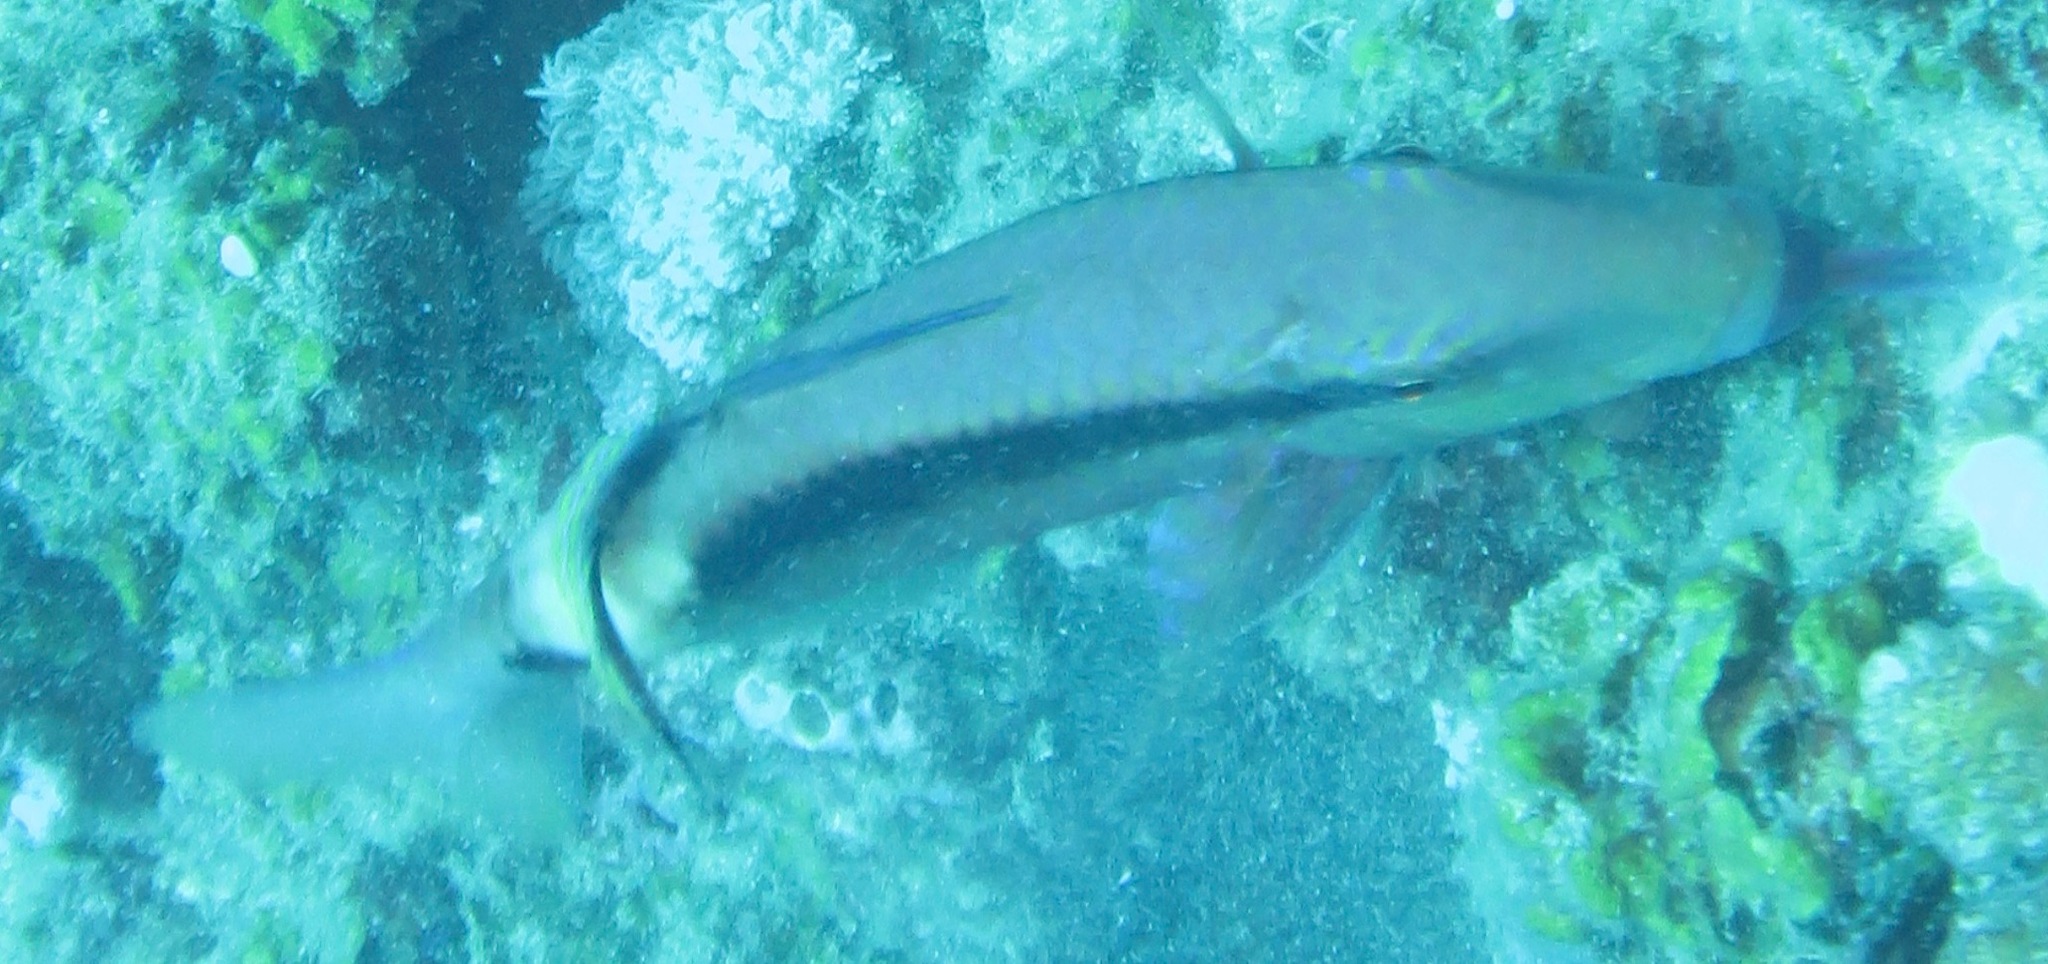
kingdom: Animalia
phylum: Chordata
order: Perciformes
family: Mullidae
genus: Parupeneus
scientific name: Parupeneus macronemus
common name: Long-barbel goatfish
